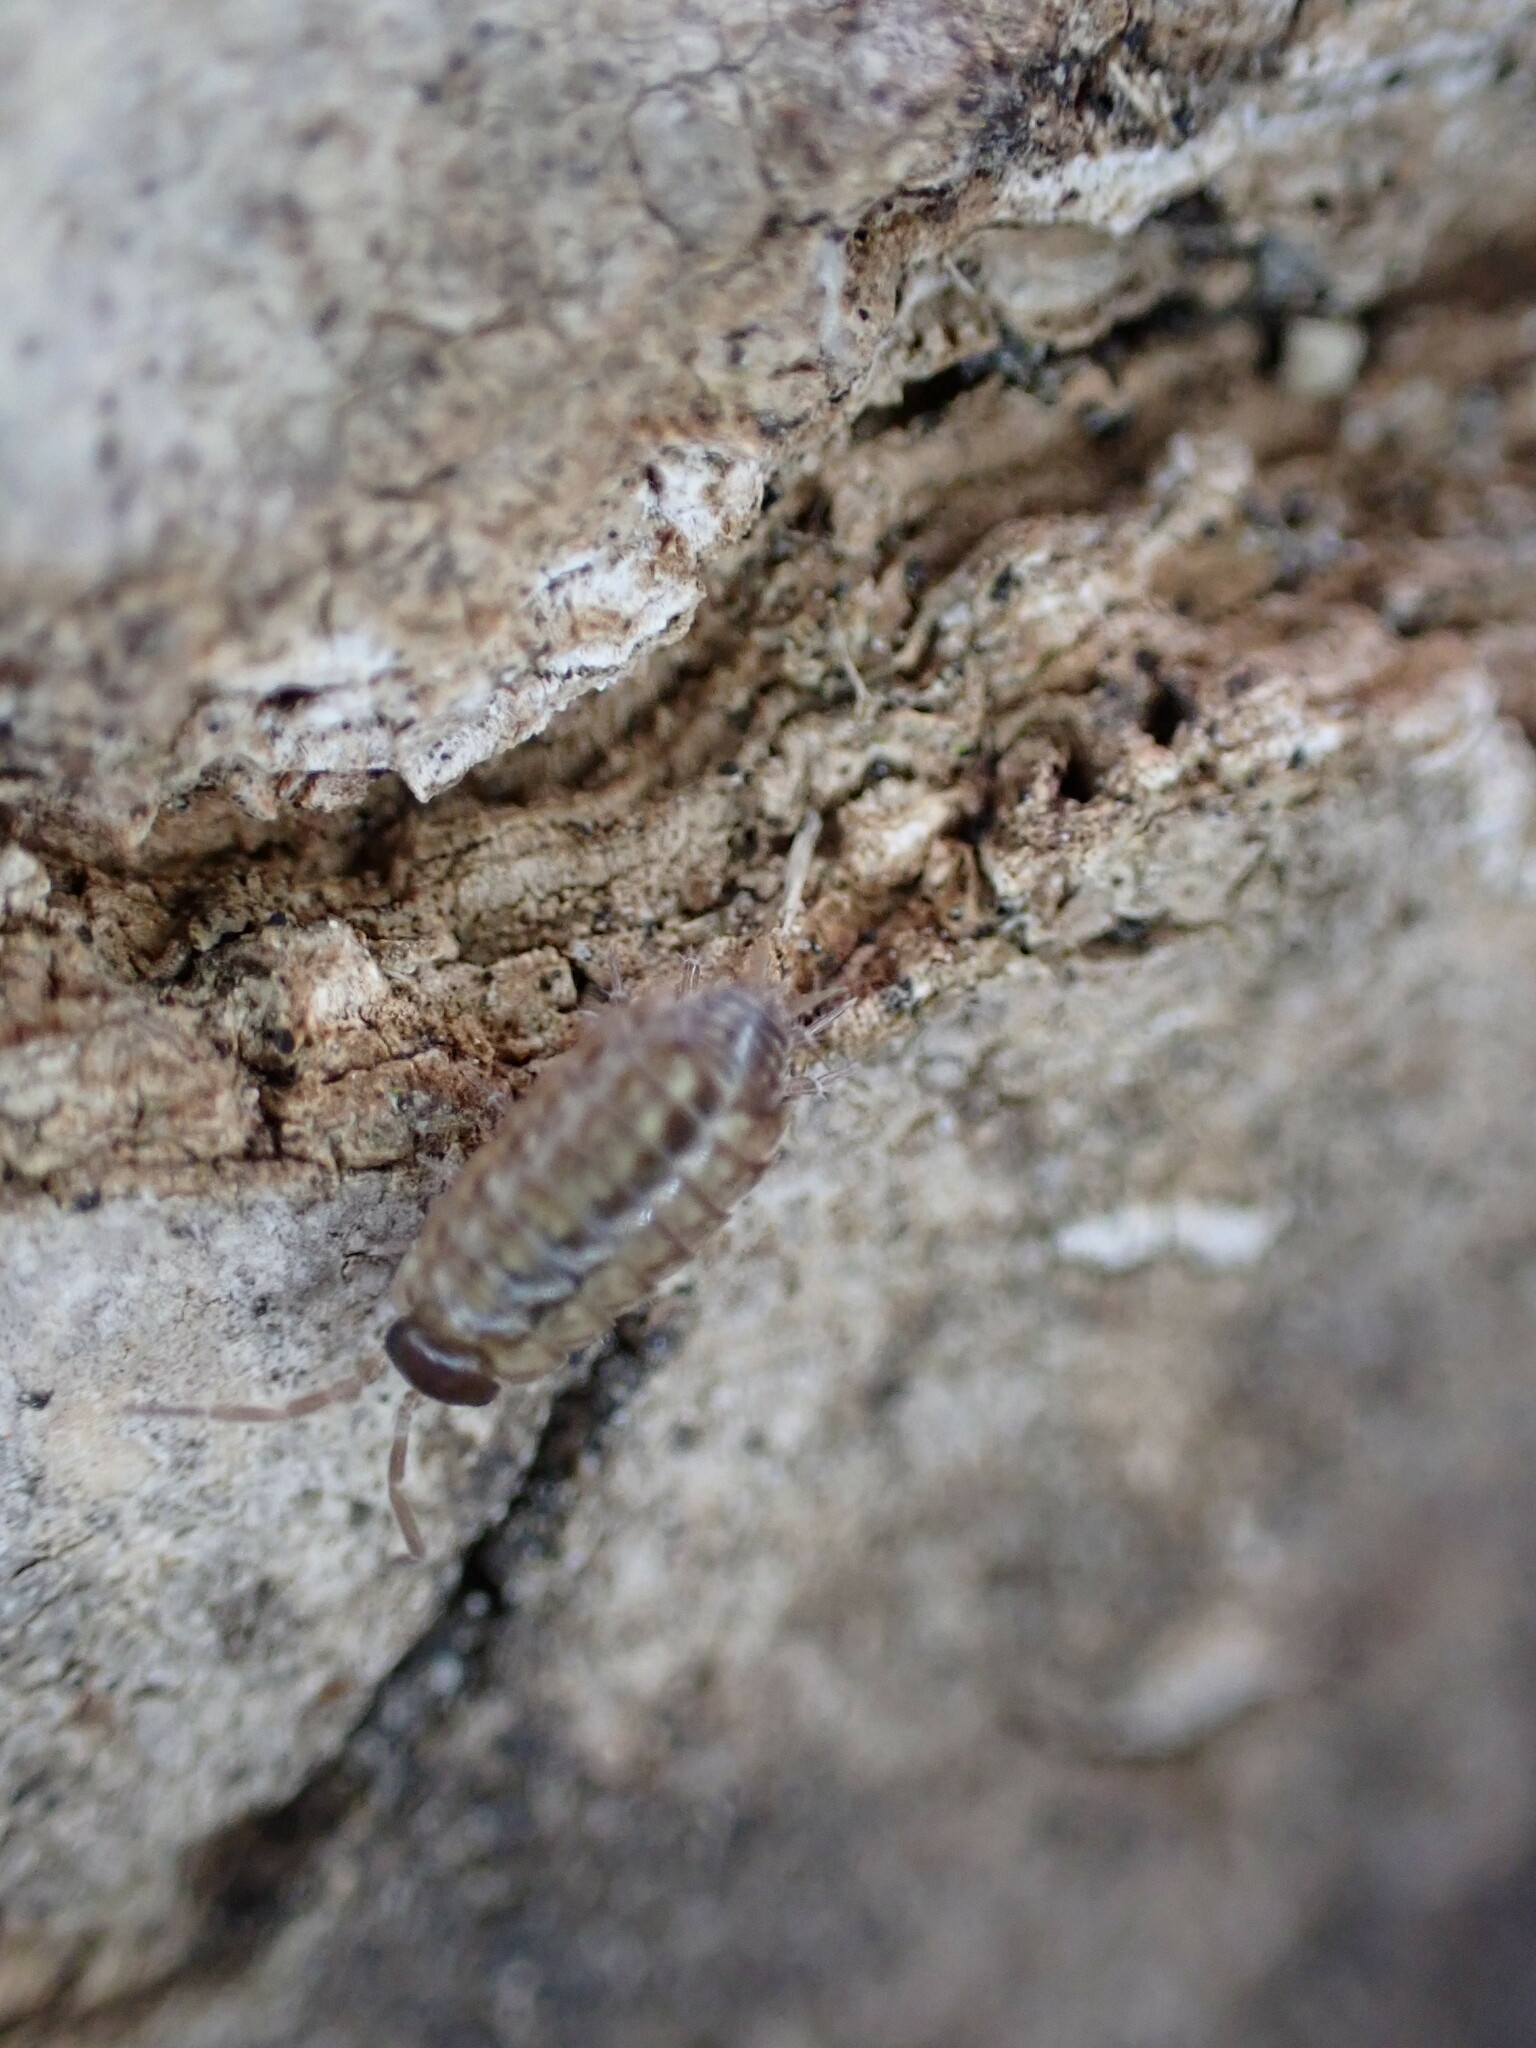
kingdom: Animalia
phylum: Arthropoda
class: Malacostraca
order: Isopoda
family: Philosciidae
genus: Philoscia
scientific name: Philoscia muscorum
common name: Common striped woodlouse
